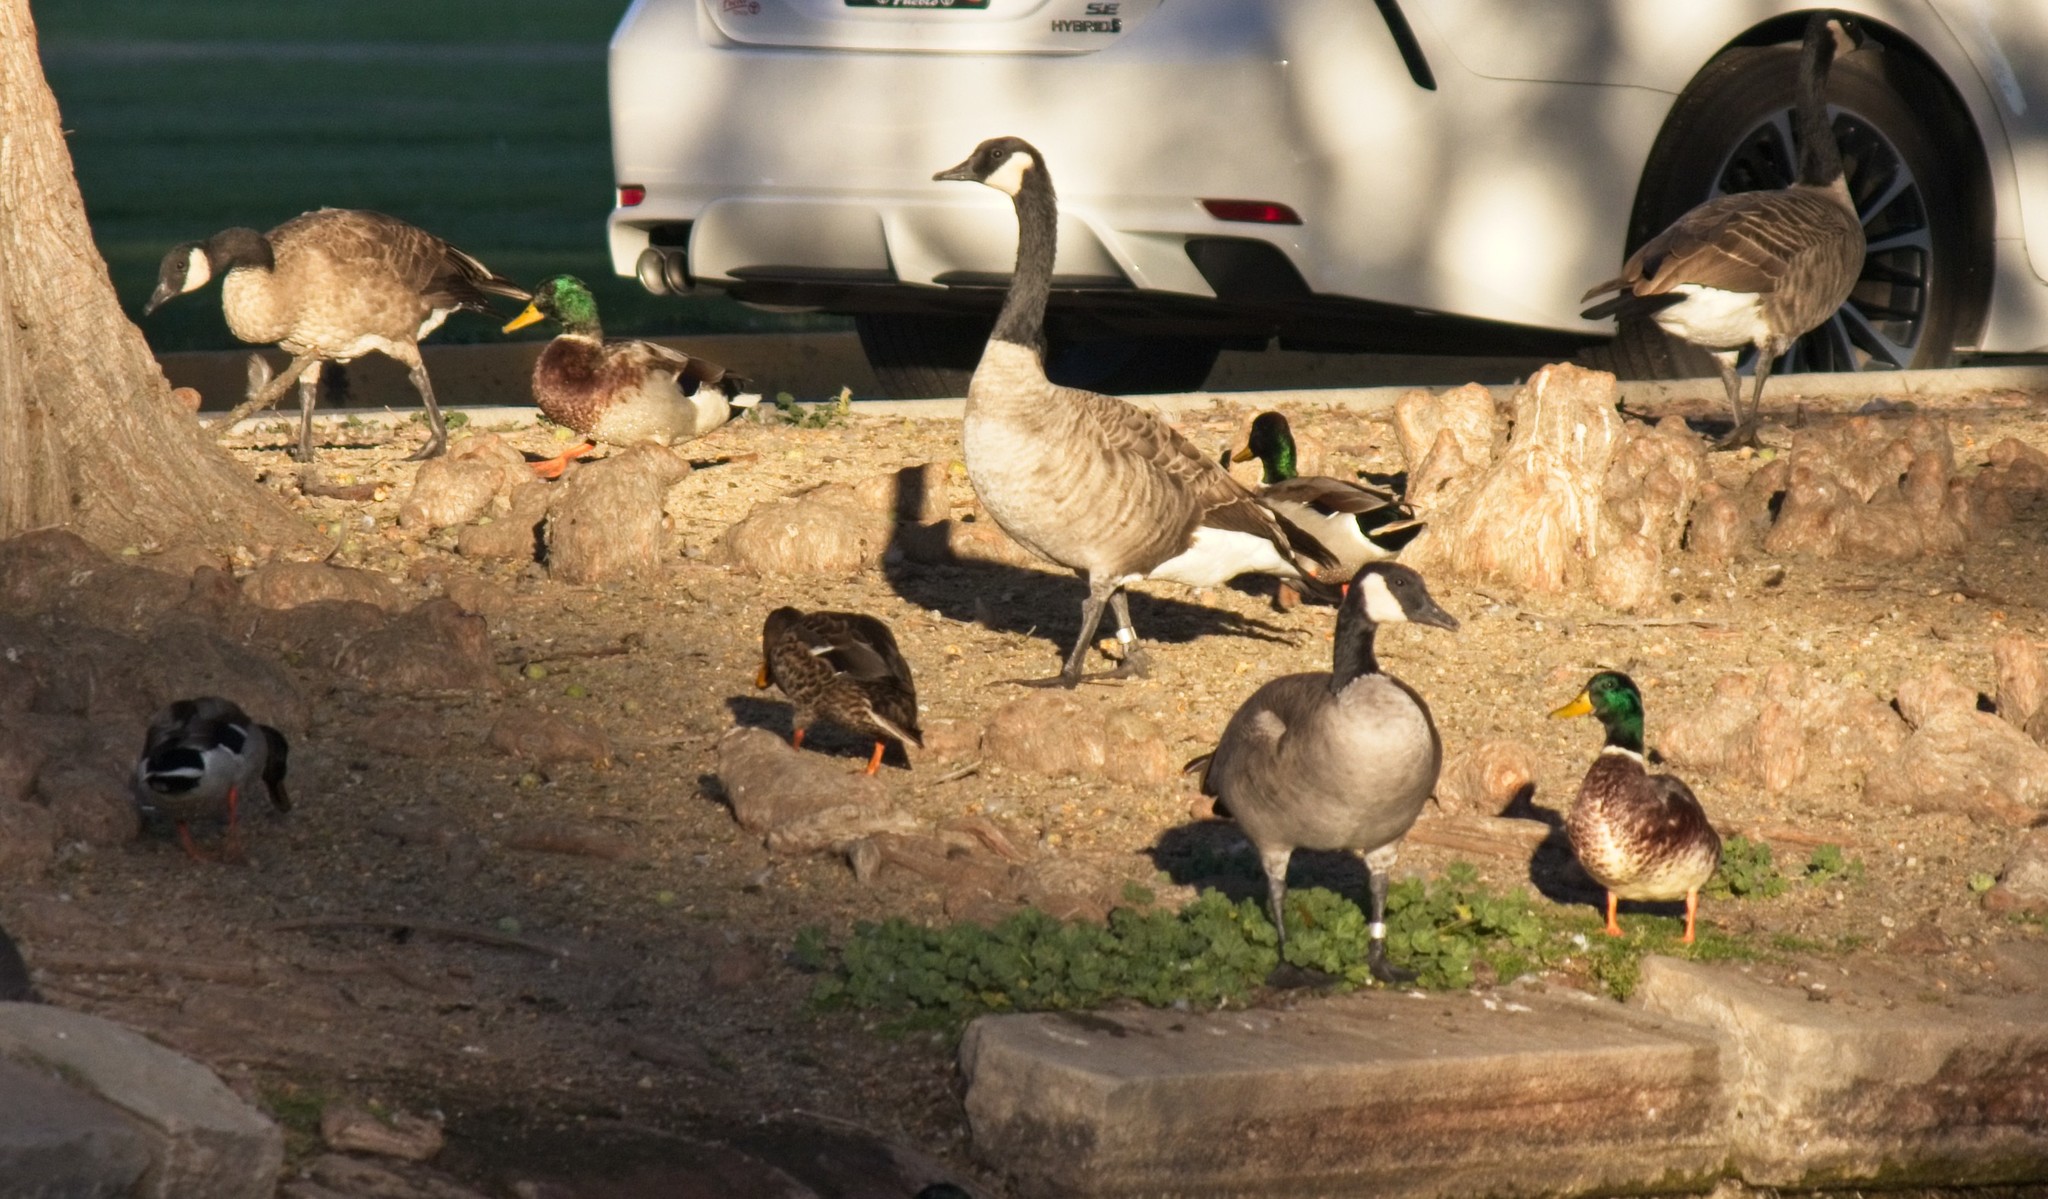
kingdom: Animalia
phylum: Chordata
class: Aves
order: Anseriformes
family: Anatidae
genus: Branta
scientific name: Branta canadensis
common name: Canada goose
